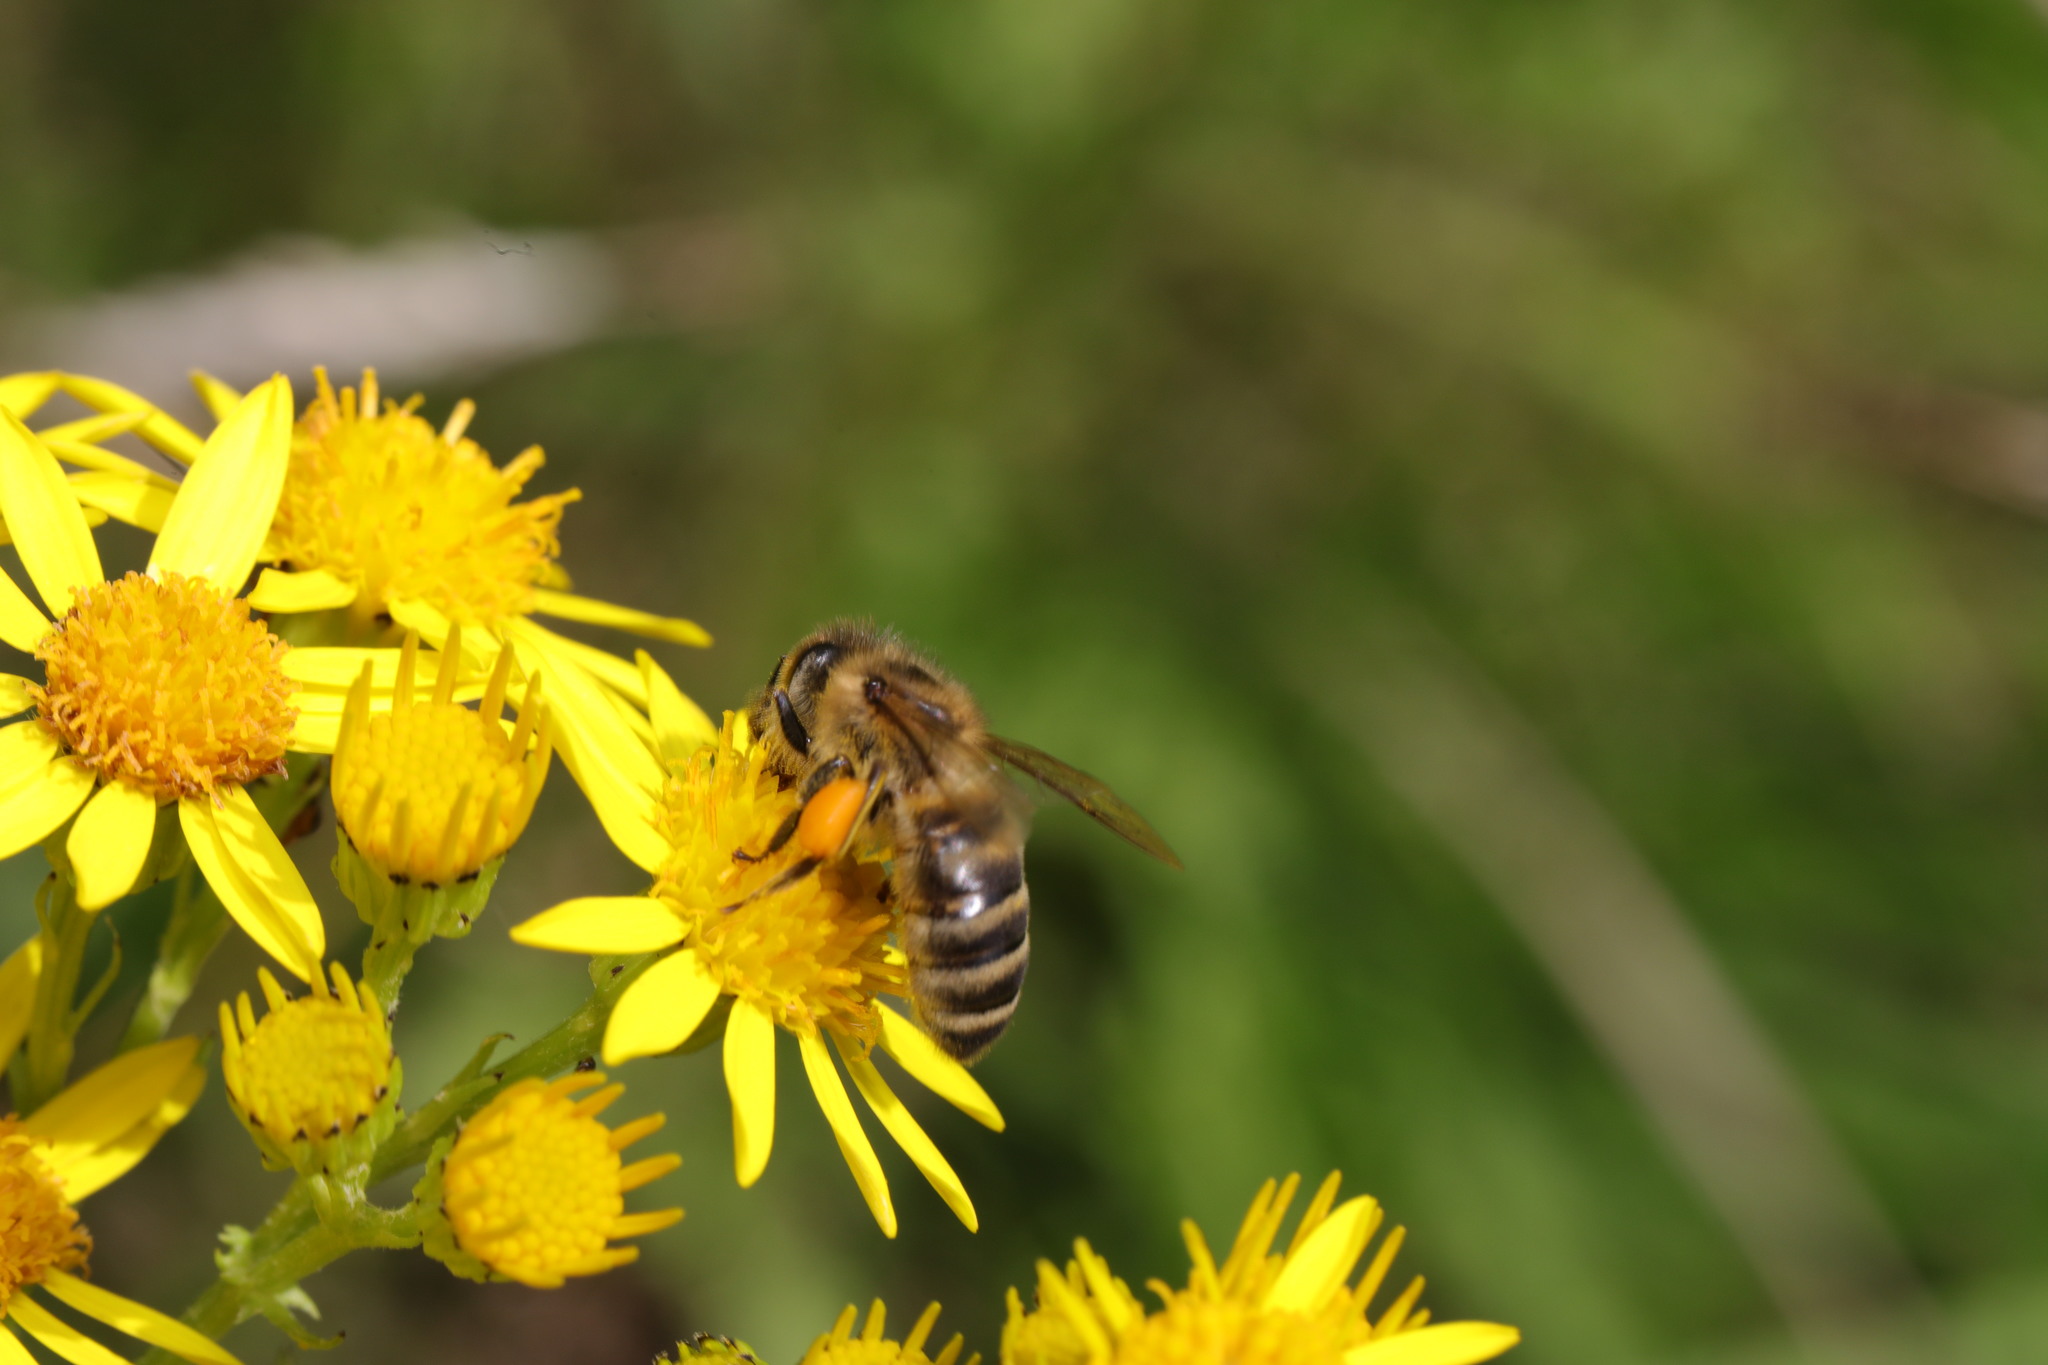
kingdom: Animalia
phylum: Arthropoda
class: Insecta
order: Hymenoptera
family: Apidae
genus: Apis
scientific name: Apis mellifera
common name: Honey bee
